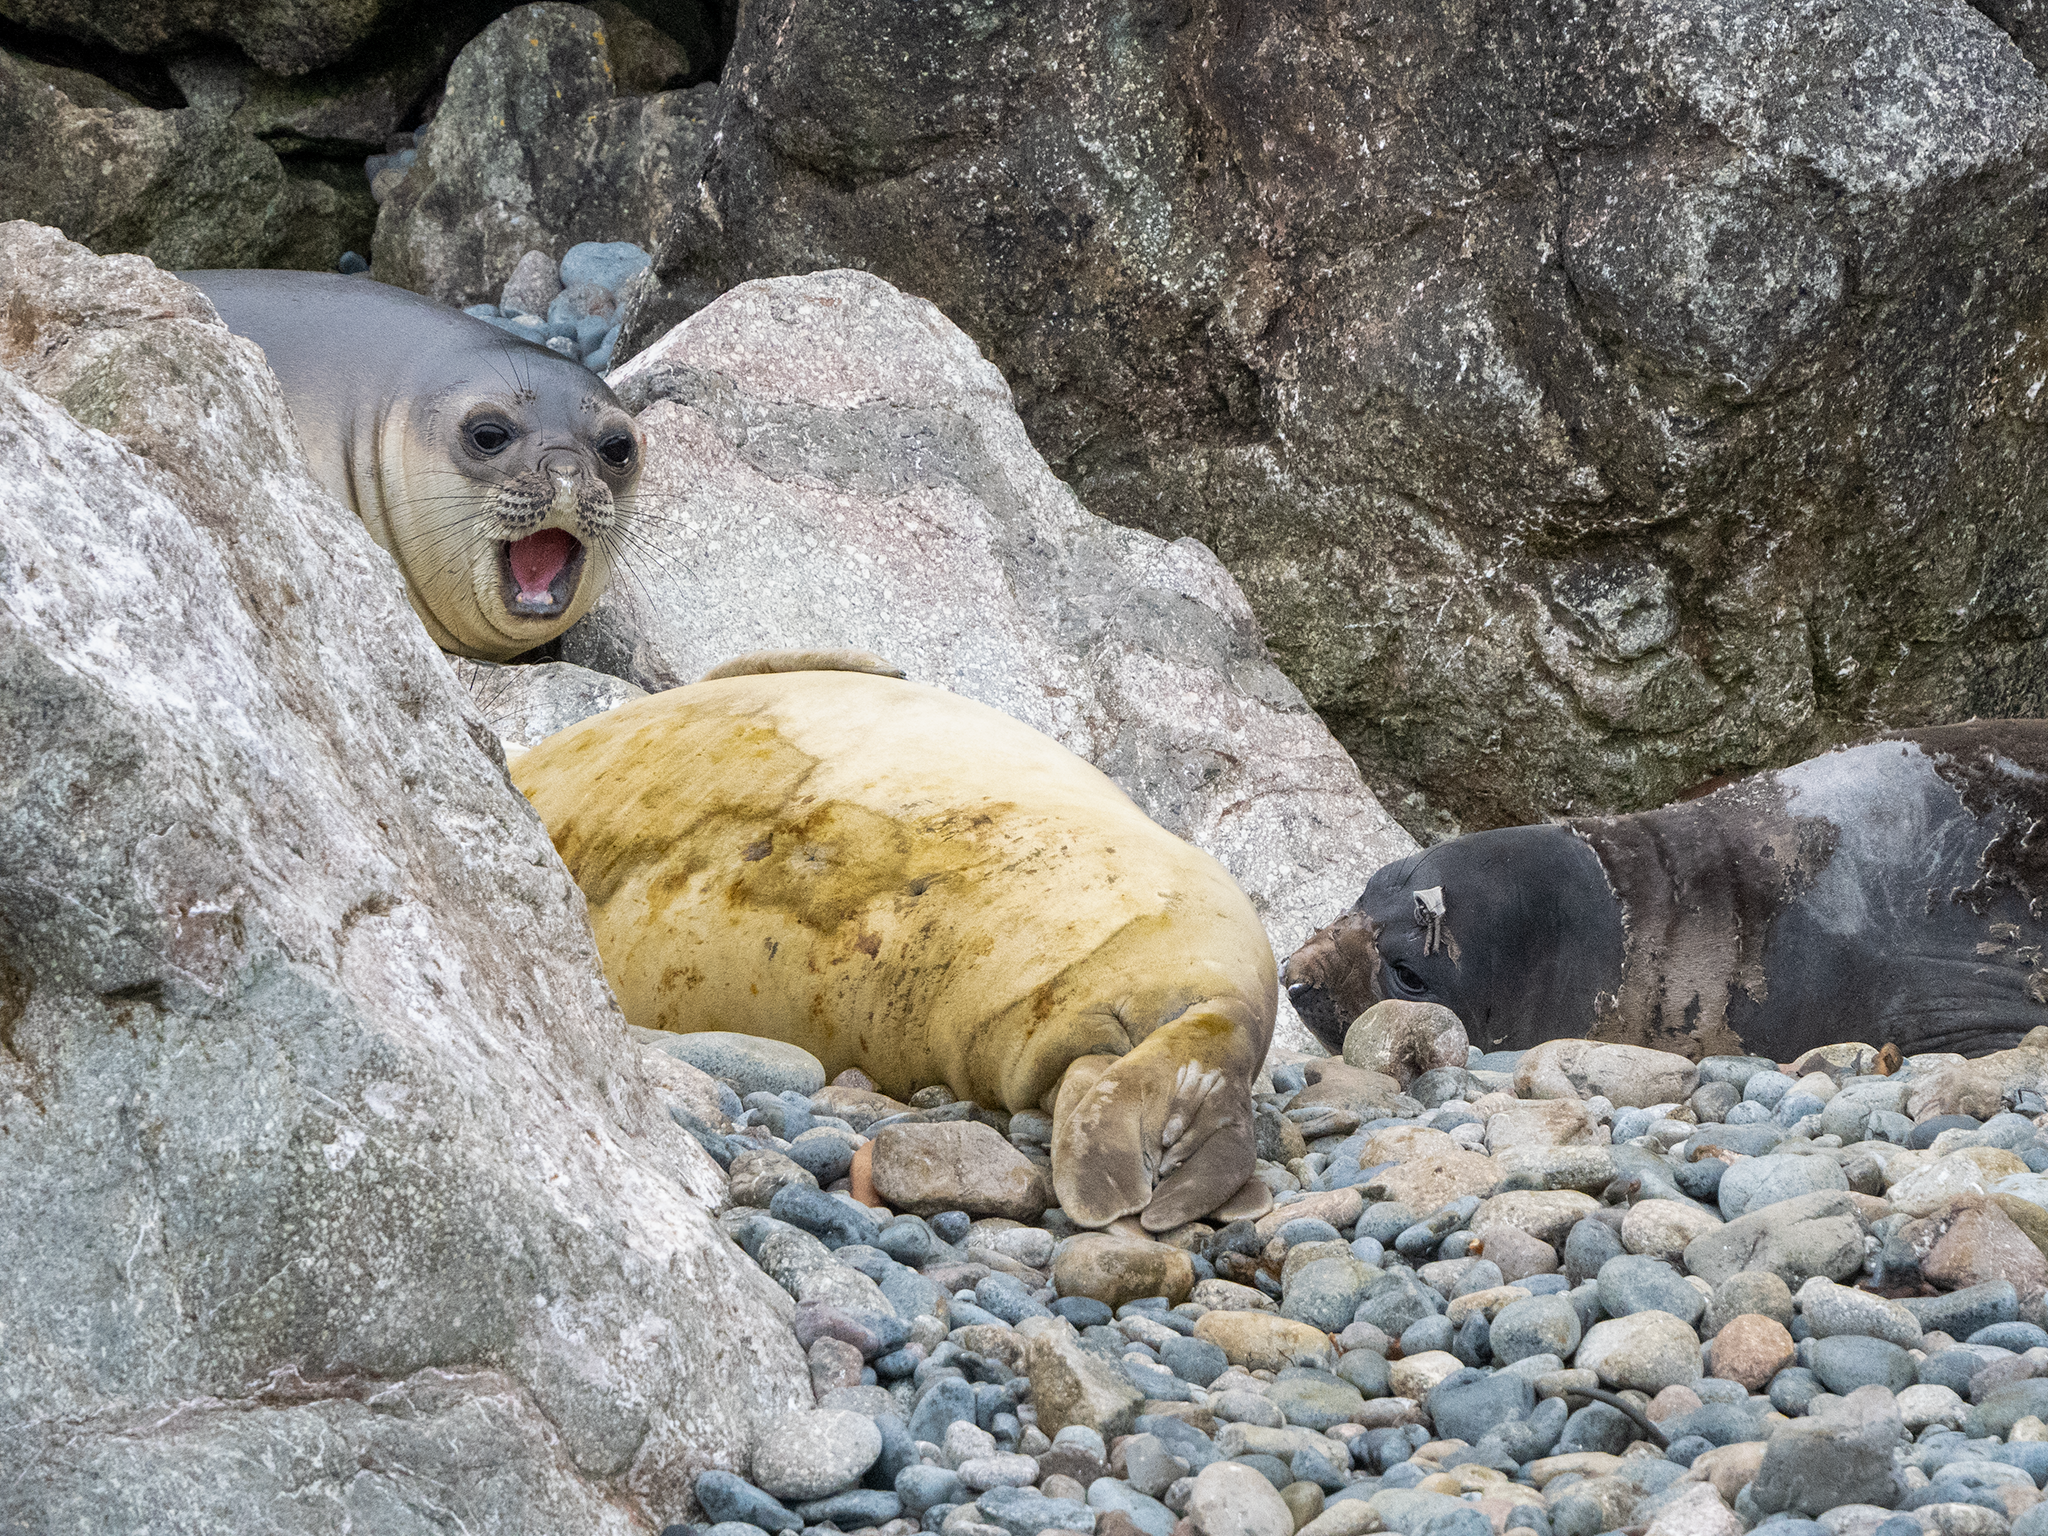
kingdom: Animalia
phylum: Chordata
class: Mammalia
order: Carnivora
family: Phocidae
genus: Mirounga
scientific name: Mirounga leonina
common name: Southern elephant seal
